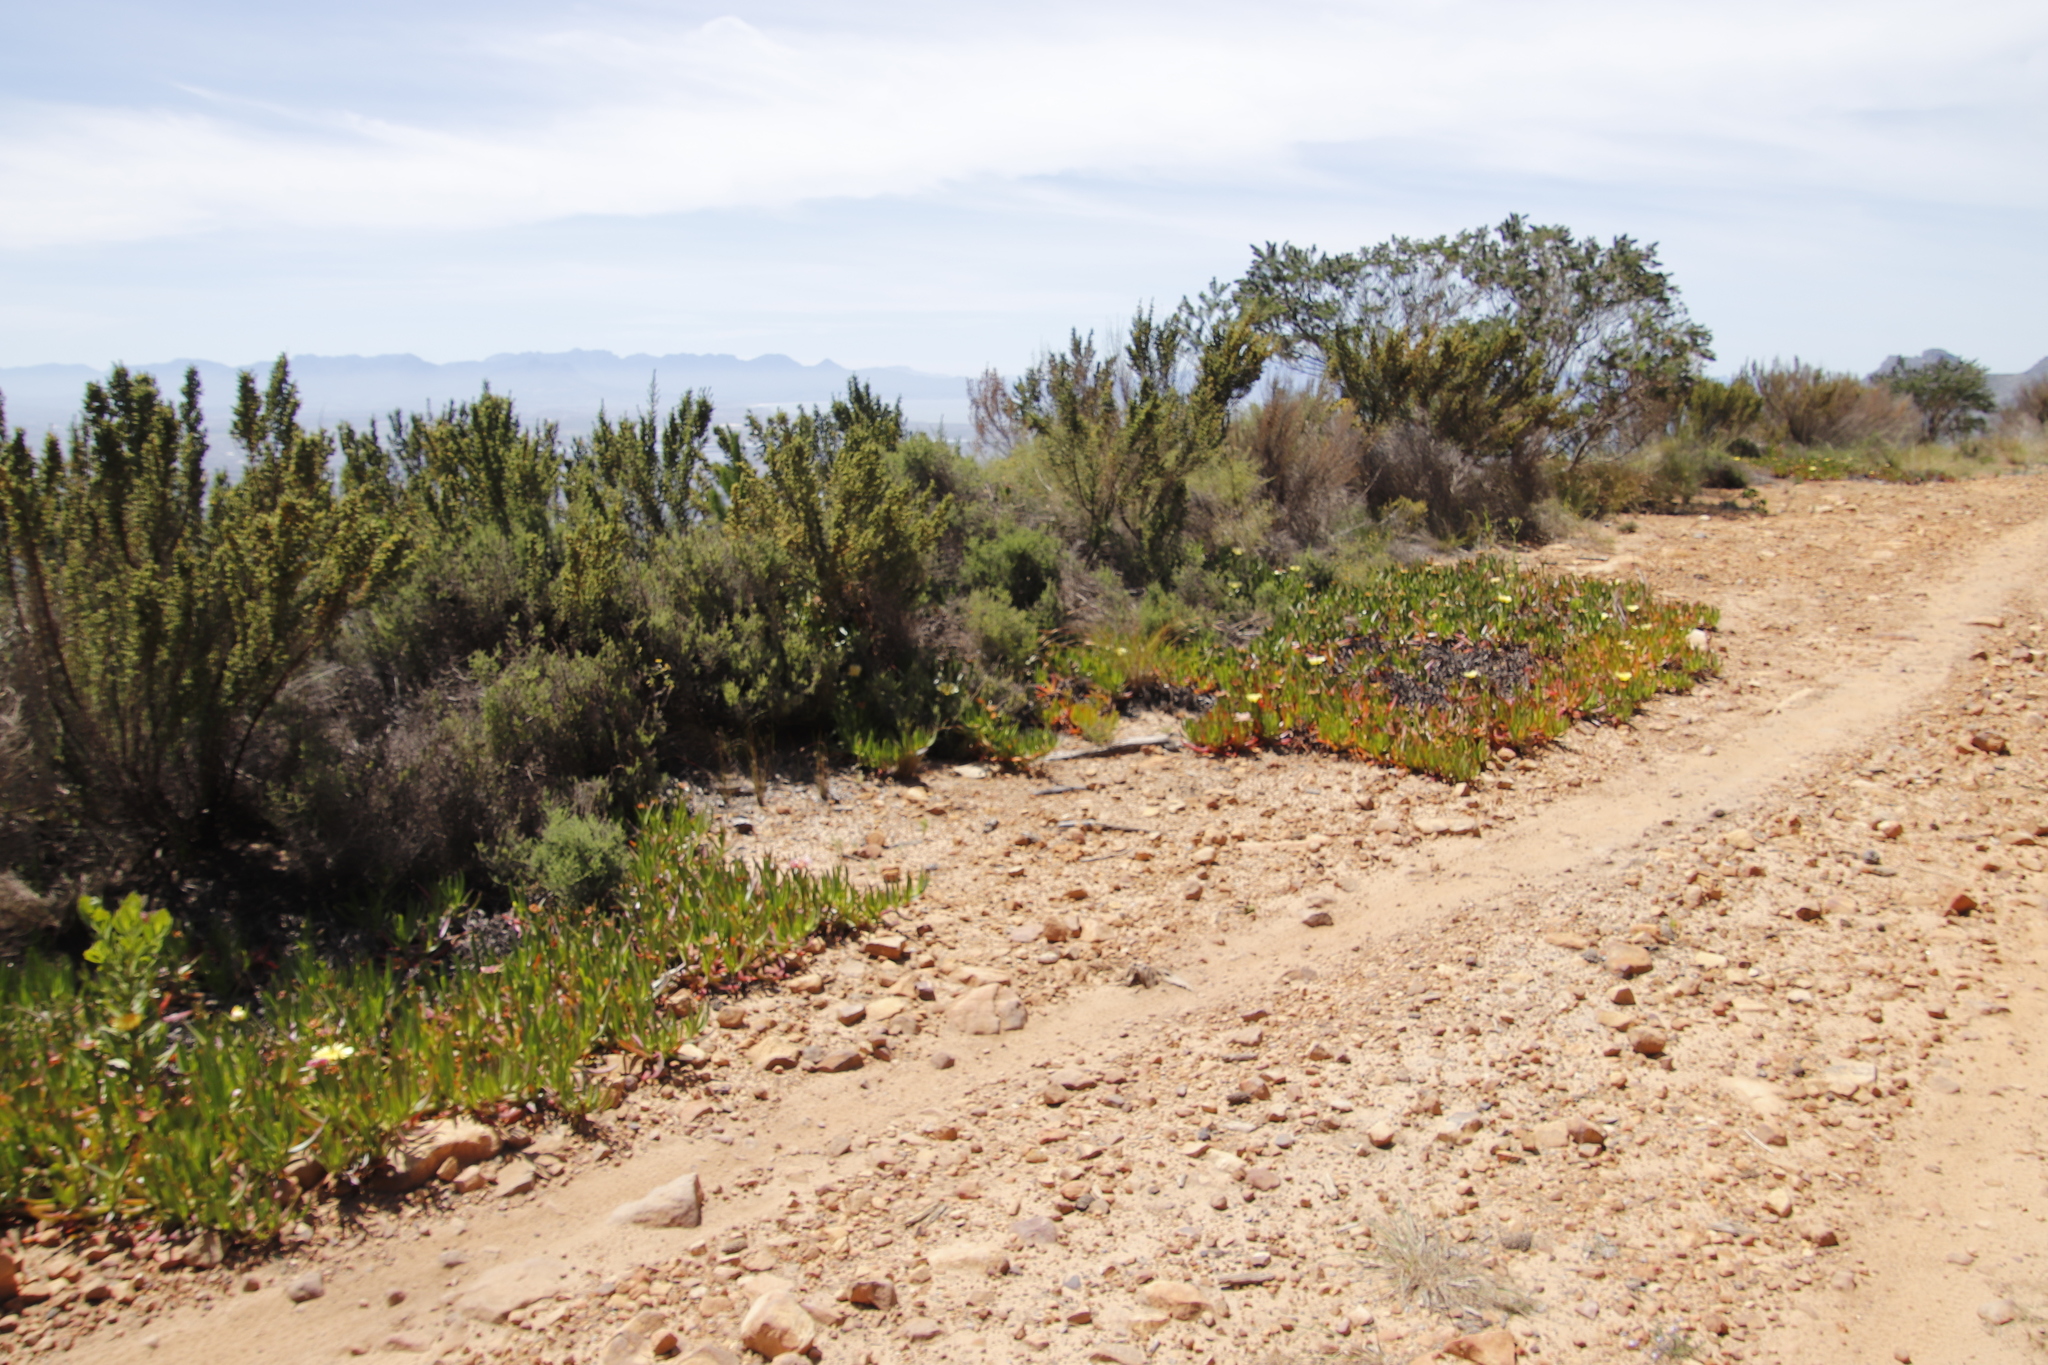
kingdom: Plantae
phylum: Tracheophyta
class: Magnoliopsida
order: Caryophyllales
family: Aizoaceae
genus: Carpobrotus
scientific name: Carpobrotus edulis
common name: Hottentot-fig
